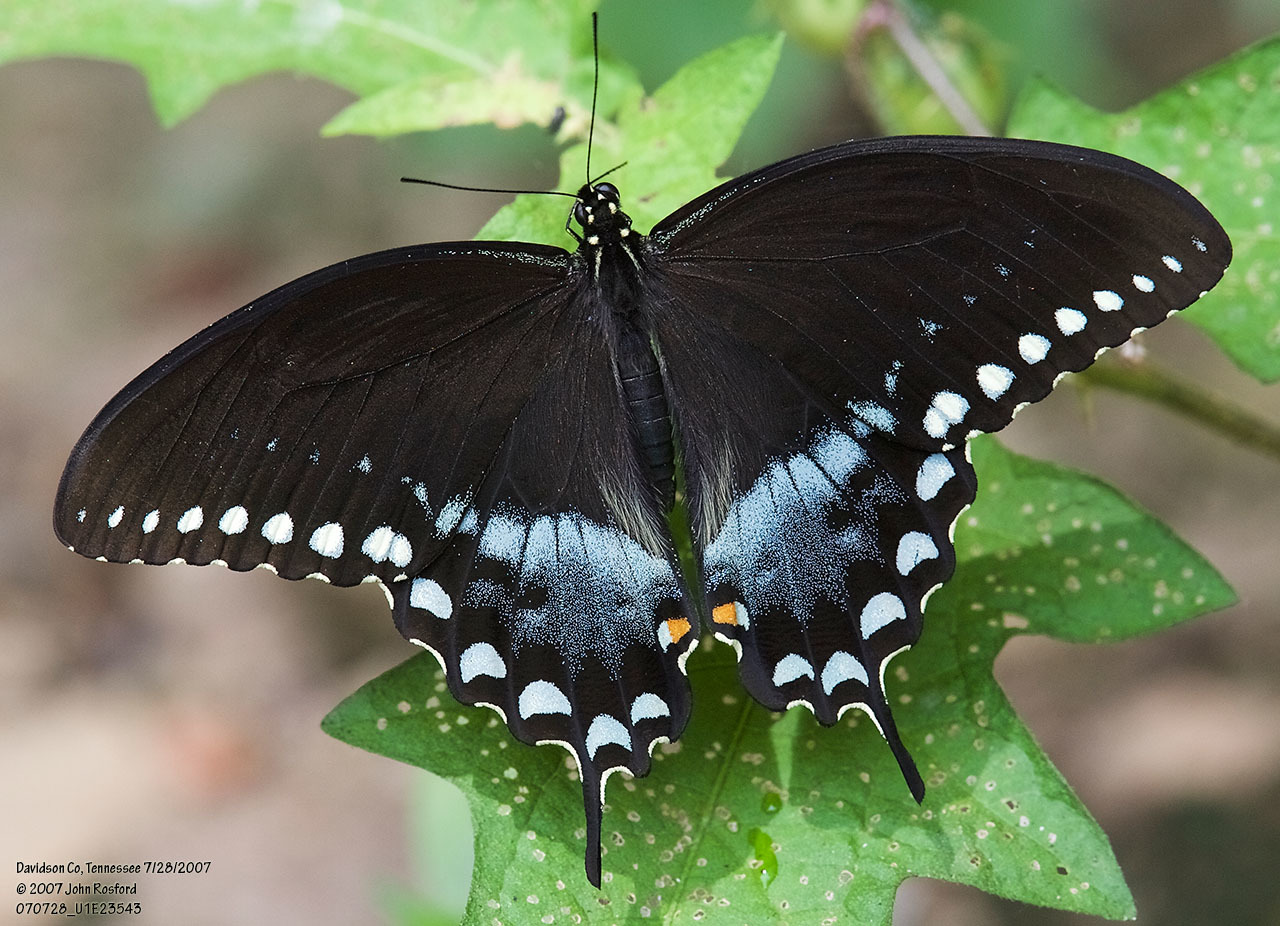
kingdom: Animalia
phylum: Arthropoda
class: Insecta
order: Lepidoptera
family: Papilionidae
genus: Papilio
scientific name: Papilio troilus
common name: Spicebush swallowtail
